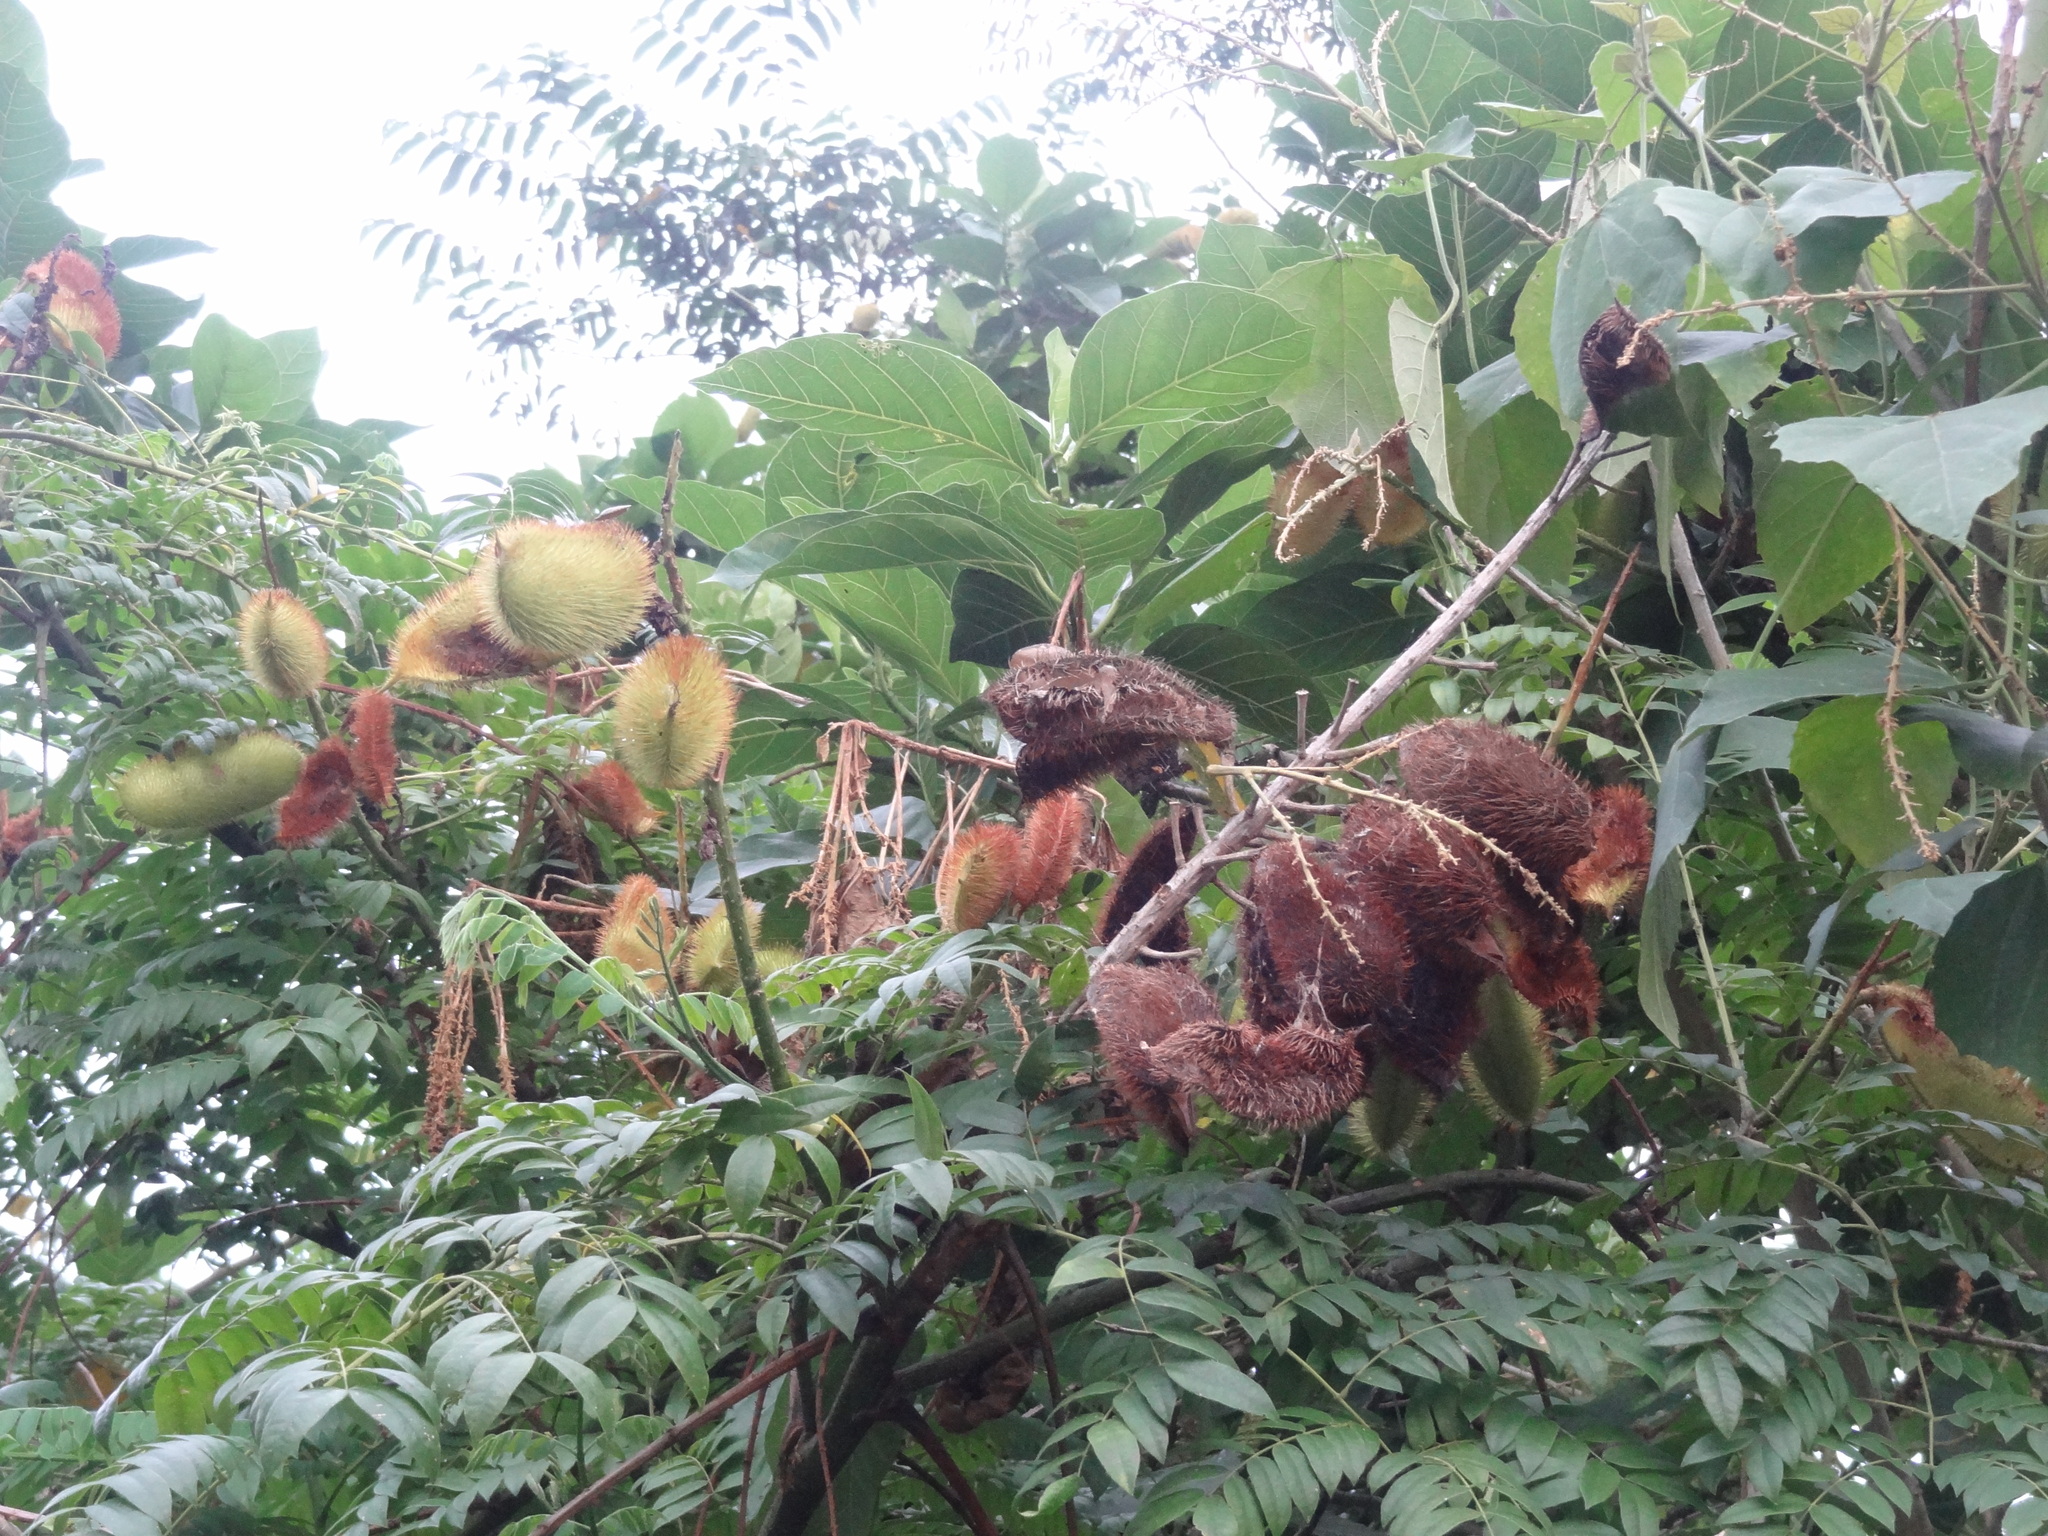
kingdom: Plantae
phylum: Tracheophyta
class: Magnoliopsida
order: Fabales
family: Fabaceae
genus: Guilandina
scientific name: Guilandina bonduc
